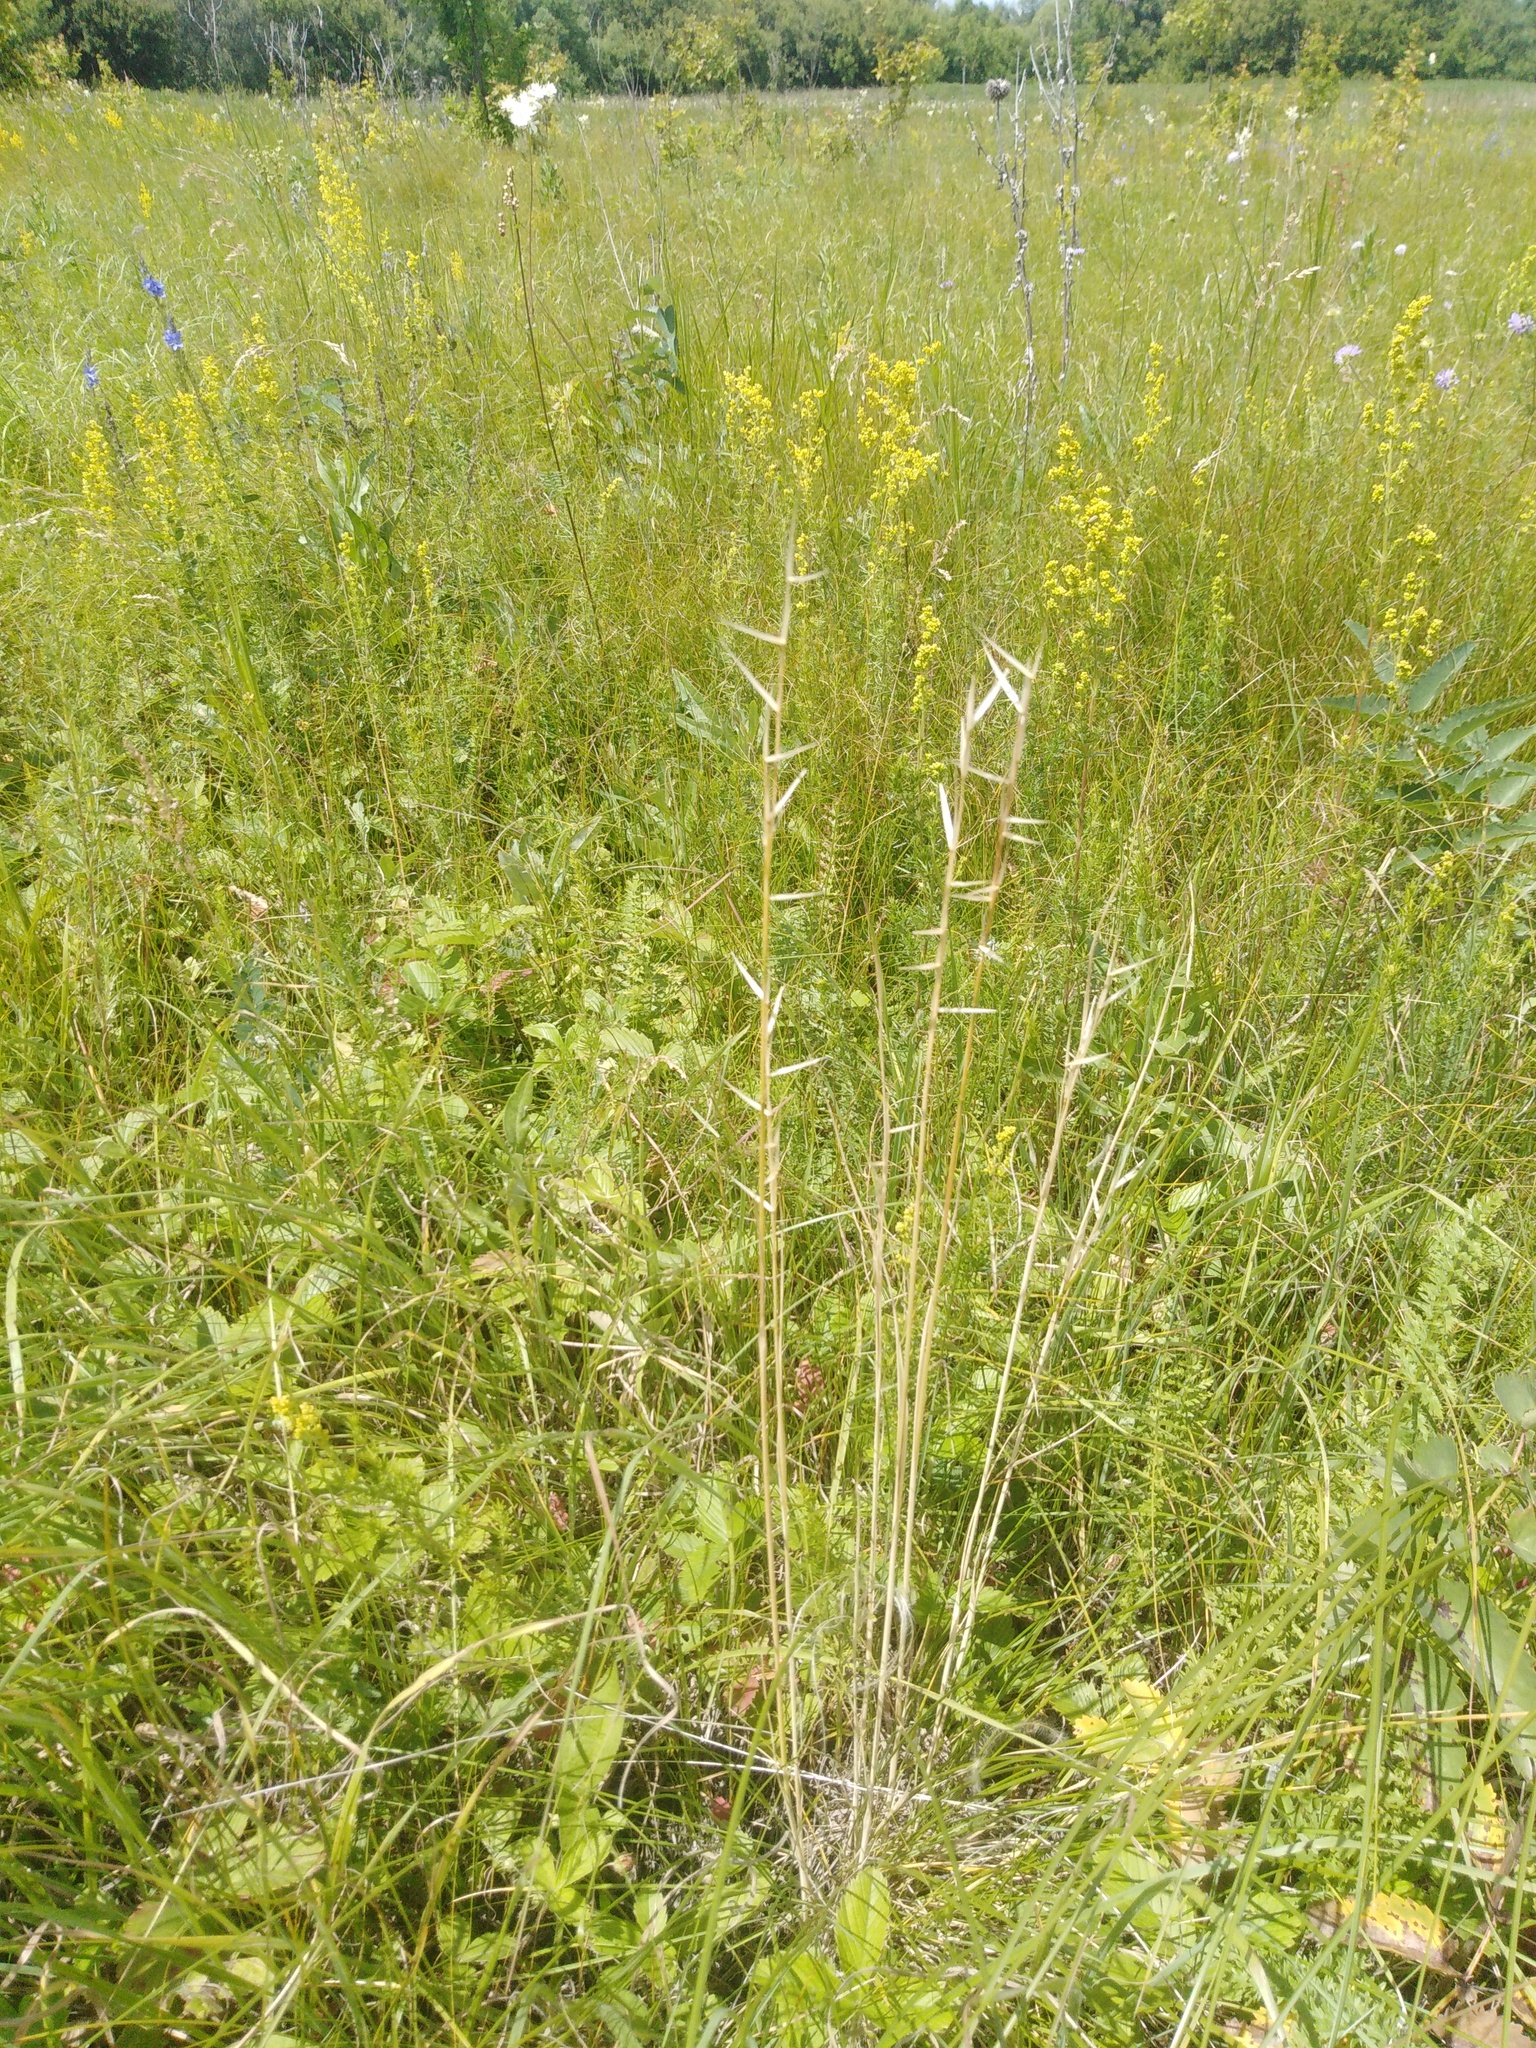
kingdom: Plantae
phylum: Tracheophyta
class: Liliopsida
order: Poales
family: Poaceae
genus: Stipa
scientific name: Stipa pennata
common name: European feather grass
